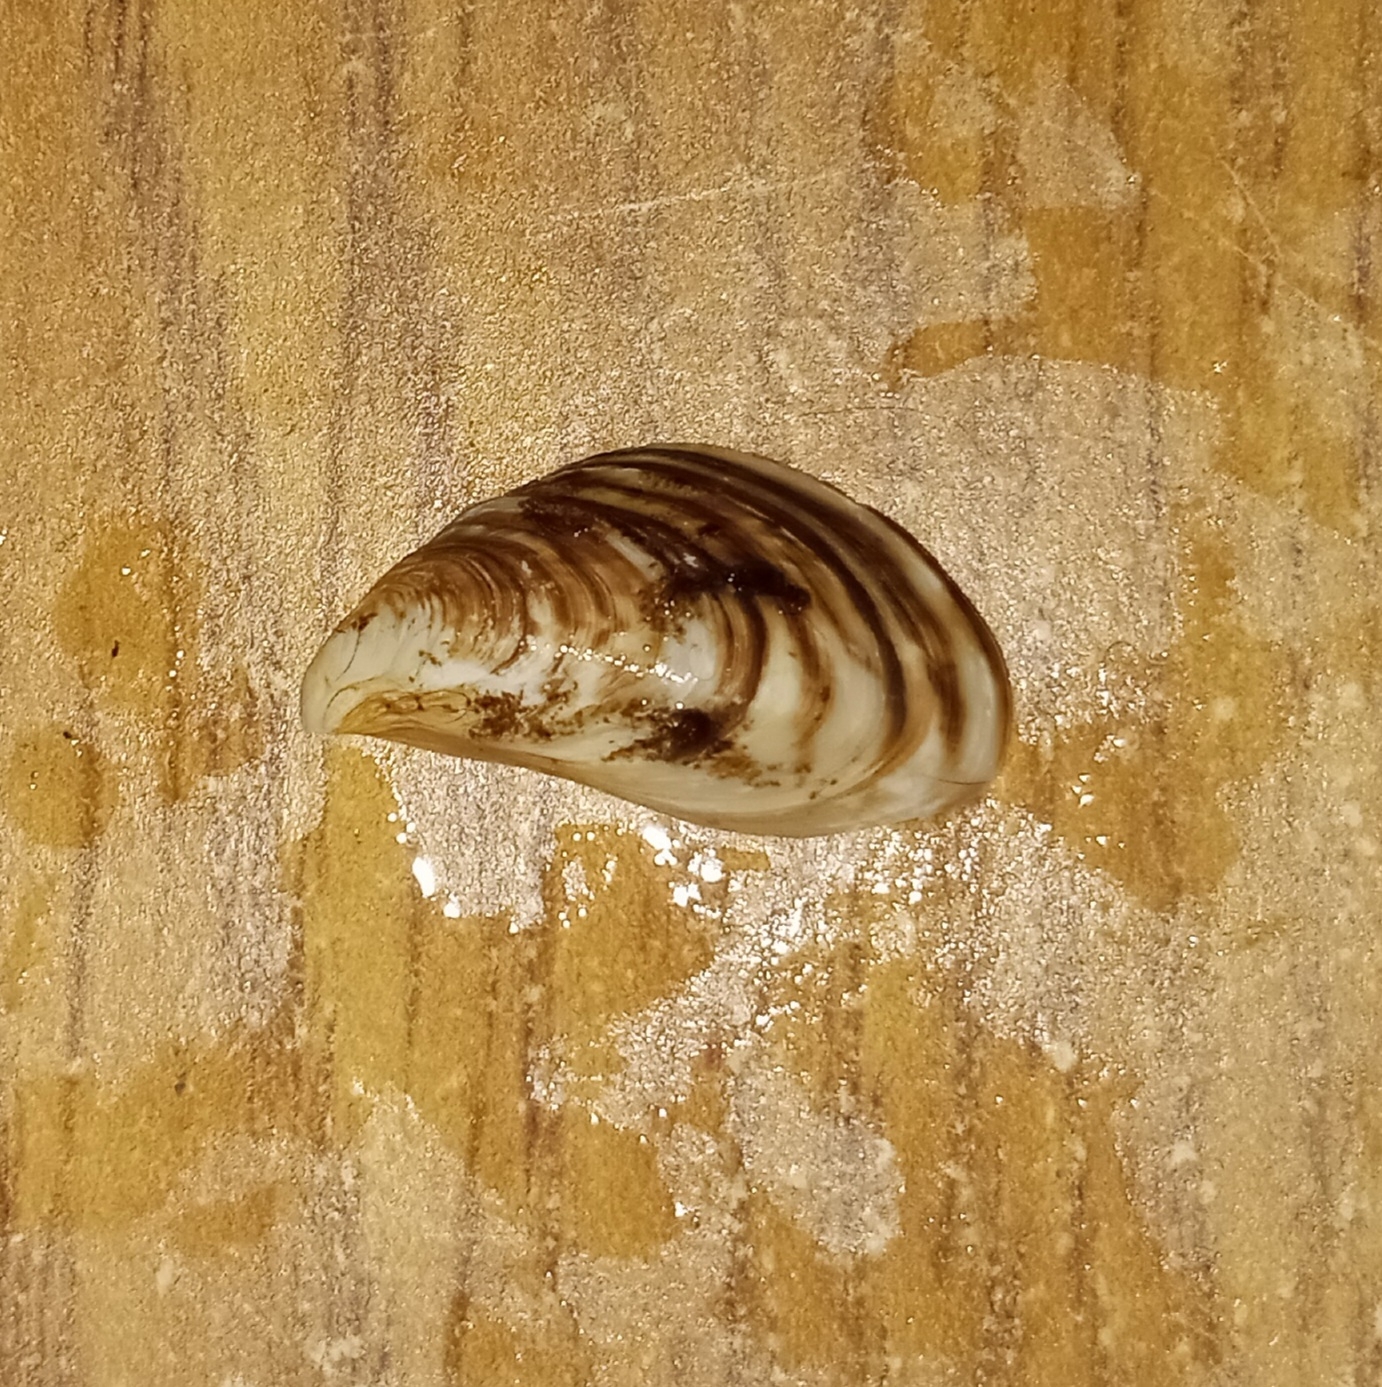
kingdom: Animalia
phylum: Mollusca
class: Bivalvia
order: Myida
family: Dreissenidae
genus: Dreissena
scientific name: Dreissena bugensis
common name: Quagga mussel
